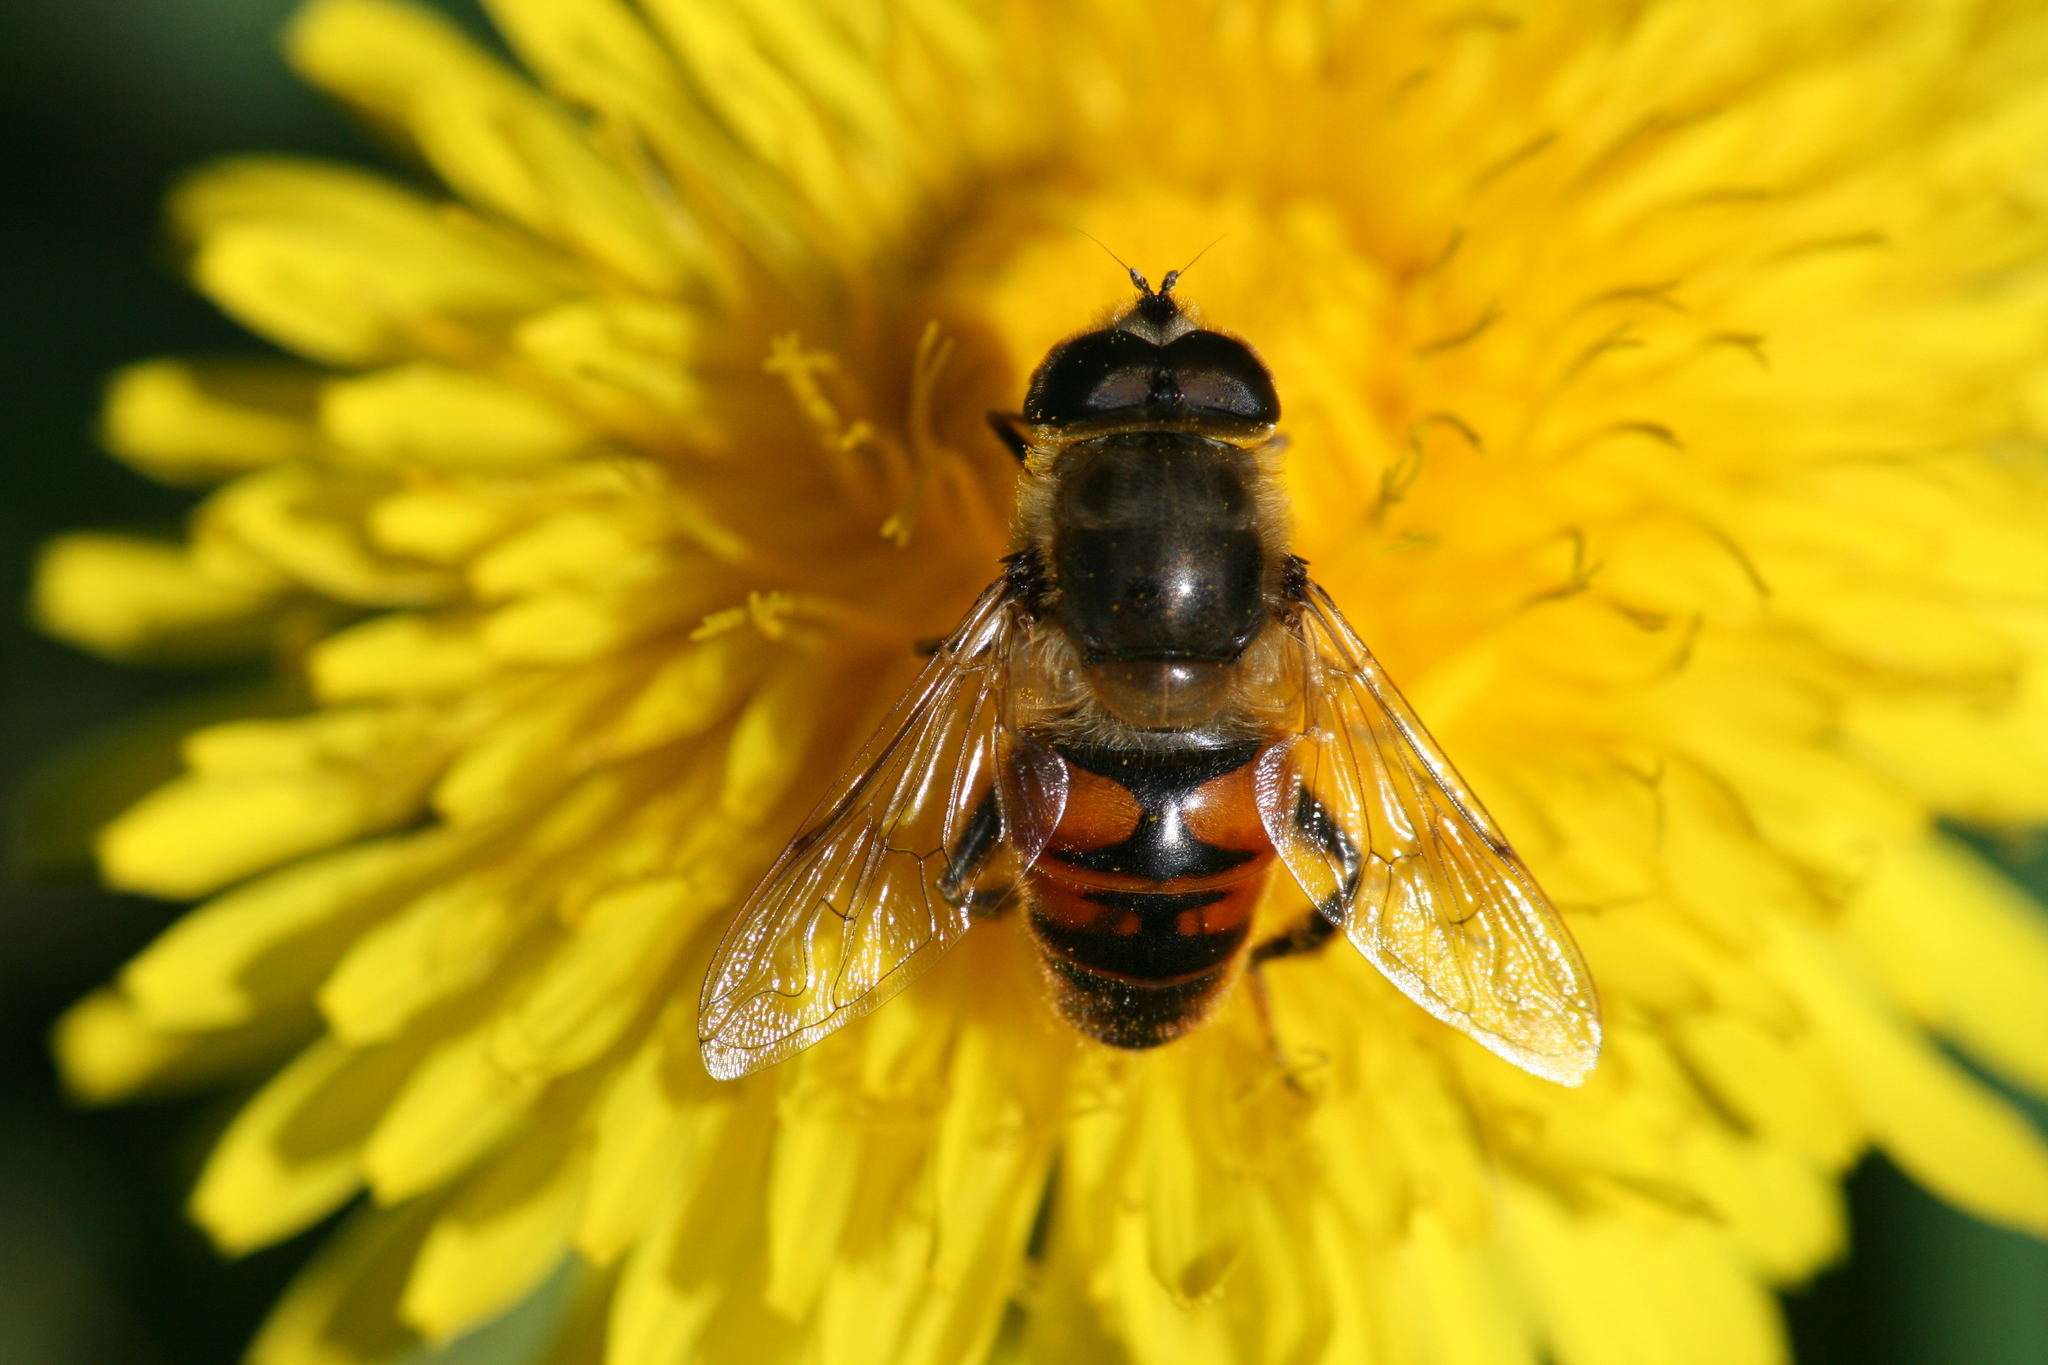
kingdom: Animalia
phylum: Arthropoda
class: Insecta
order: Diptera
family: Syrphidae
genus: Eristalis
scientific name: Eristalis tenax
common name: Drone fly
